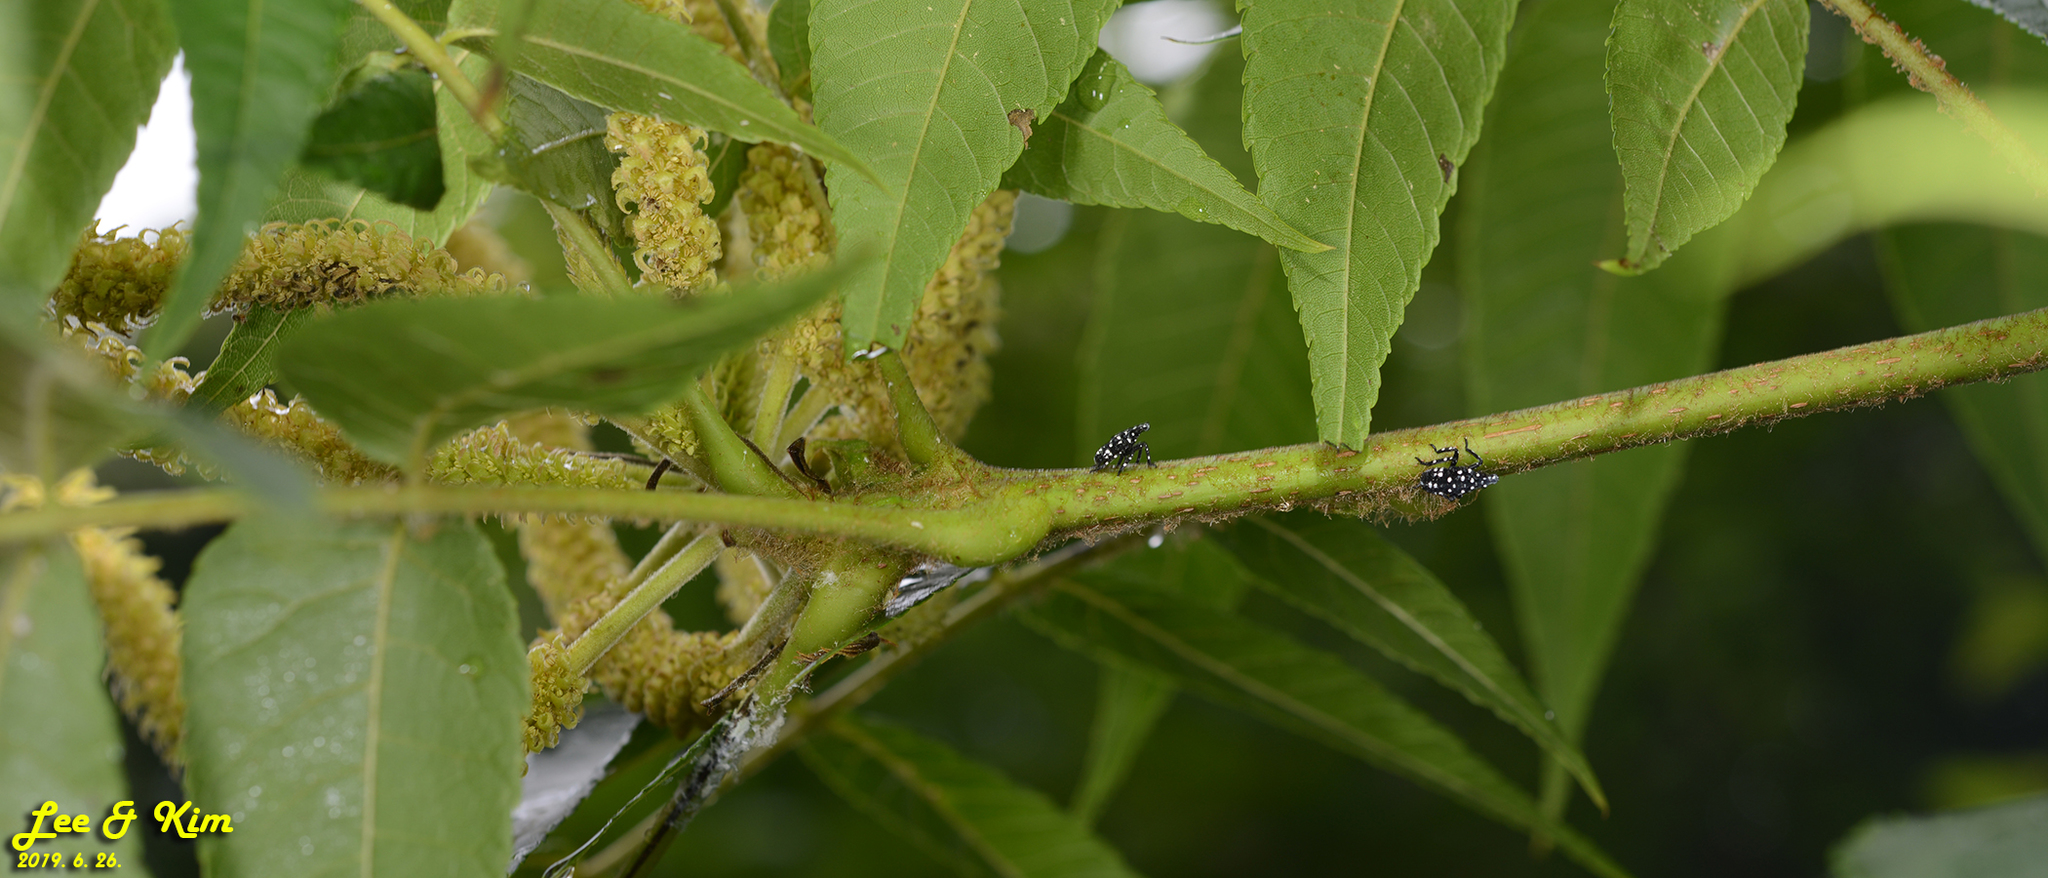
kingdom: Animalia
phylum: Arthropoda
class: Insecta
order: Hemiptera
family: Fulgoridae
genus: Lycorma
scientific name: Lycorma delicatula
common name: Spotted lanternfly
